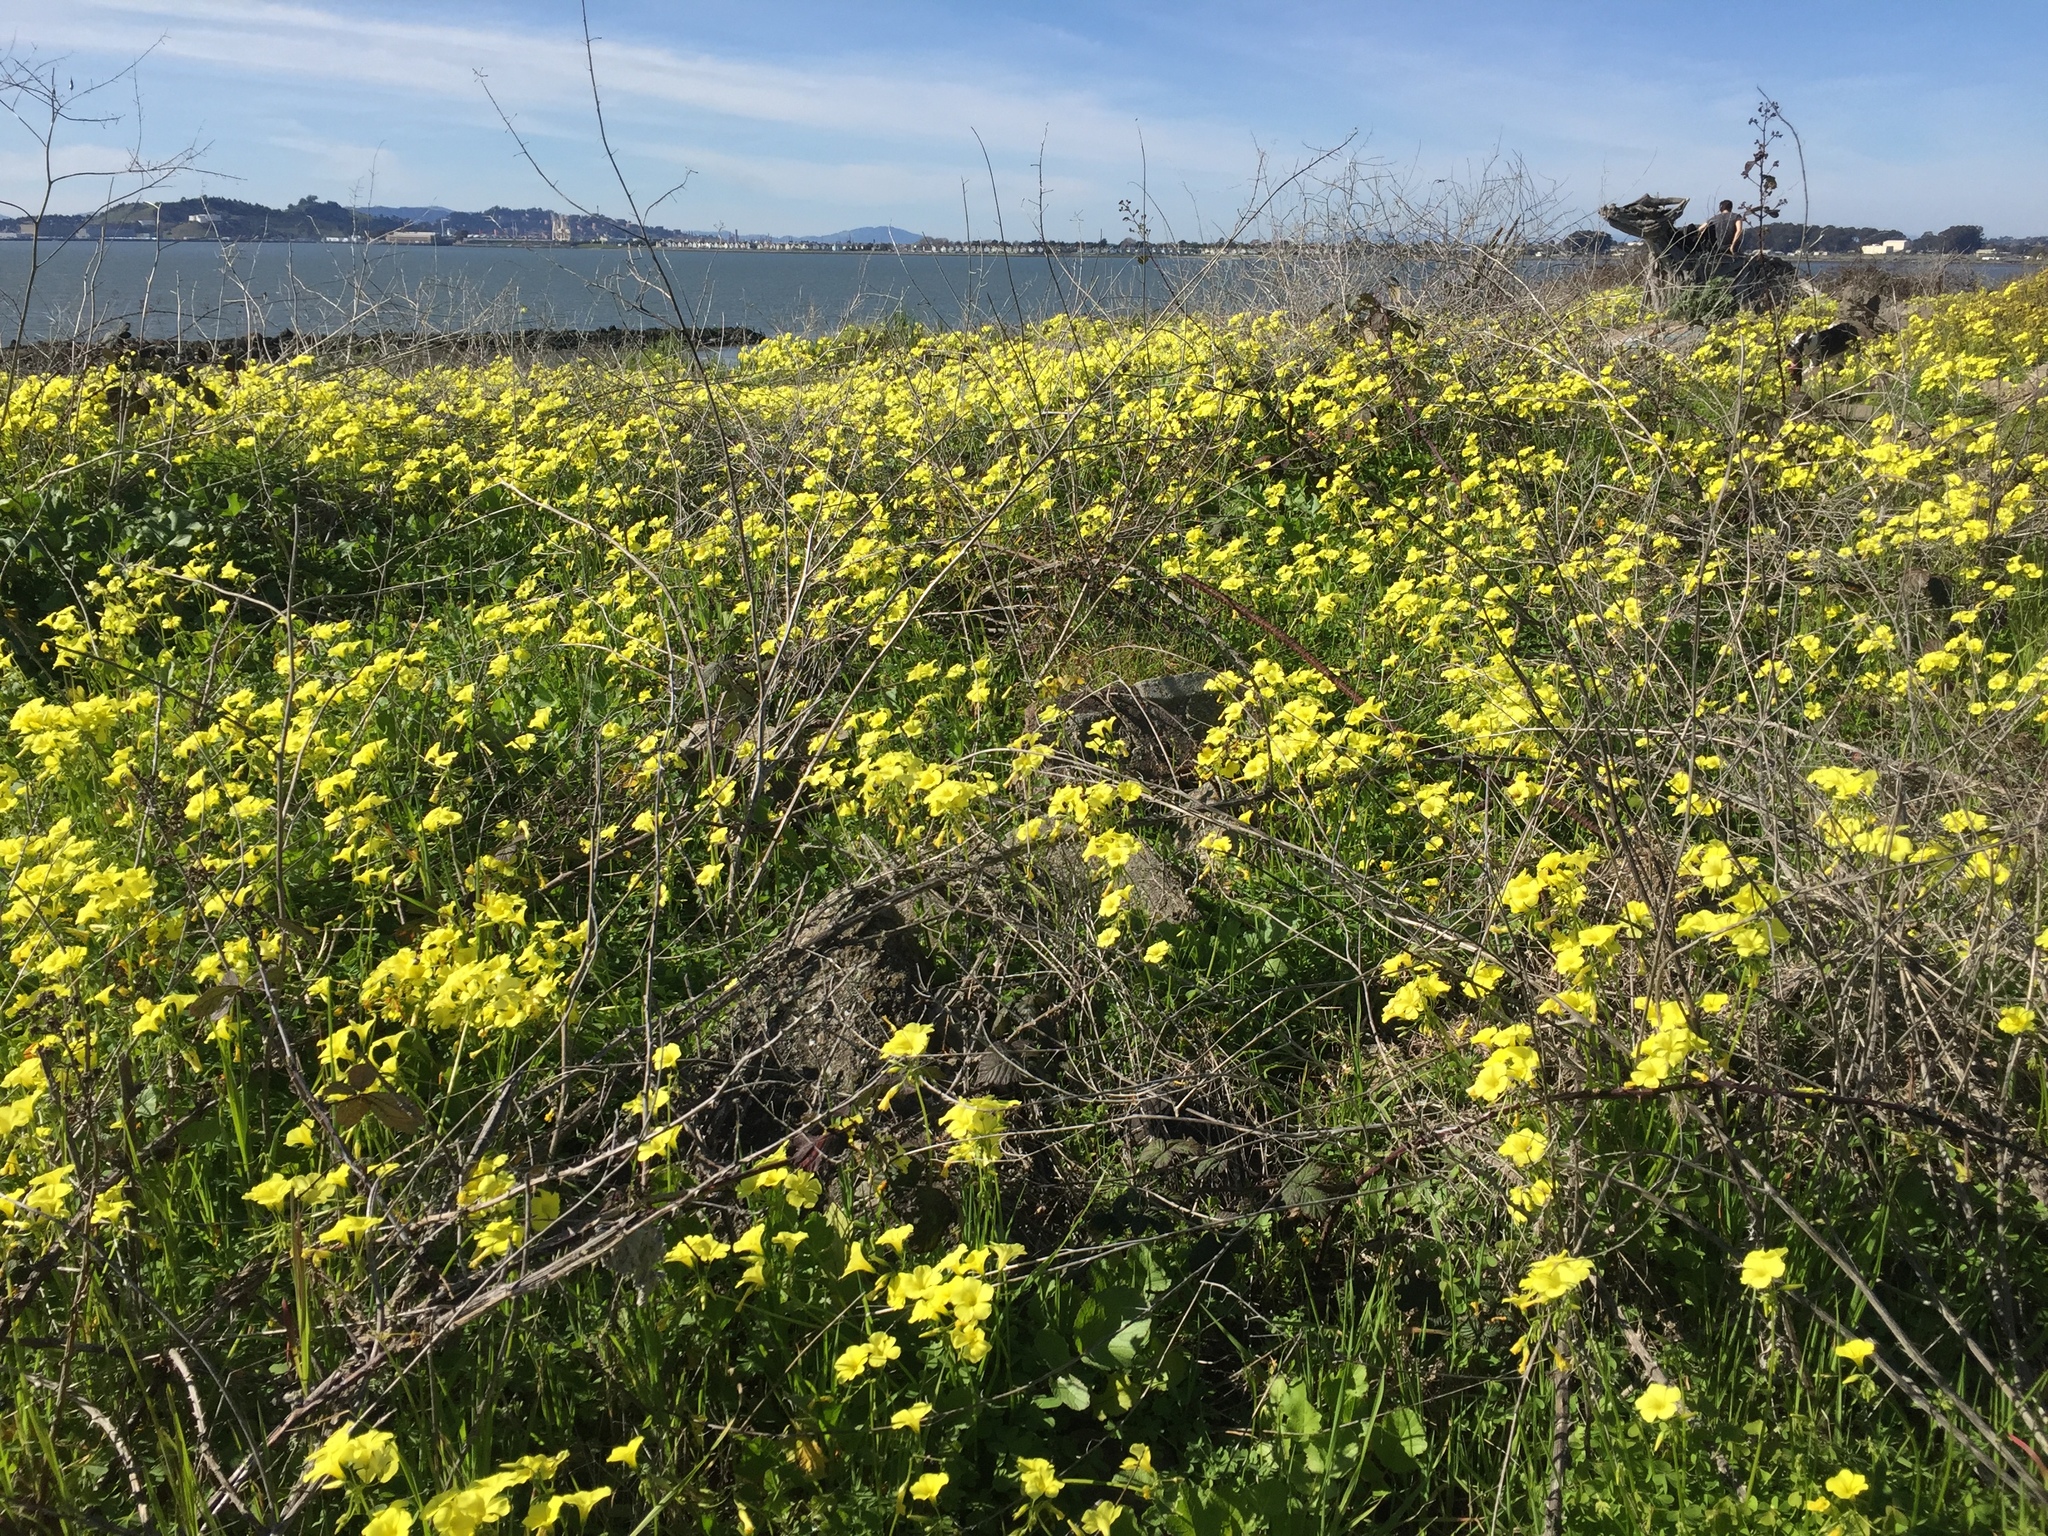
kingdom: Plantae
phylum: Tracheophyta
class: Magnoliopsida
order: Oxalidales
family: Oxalidaceae
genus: Oxalis
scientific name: Oxalis pes-caprae
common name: Bermuda-buttercup
